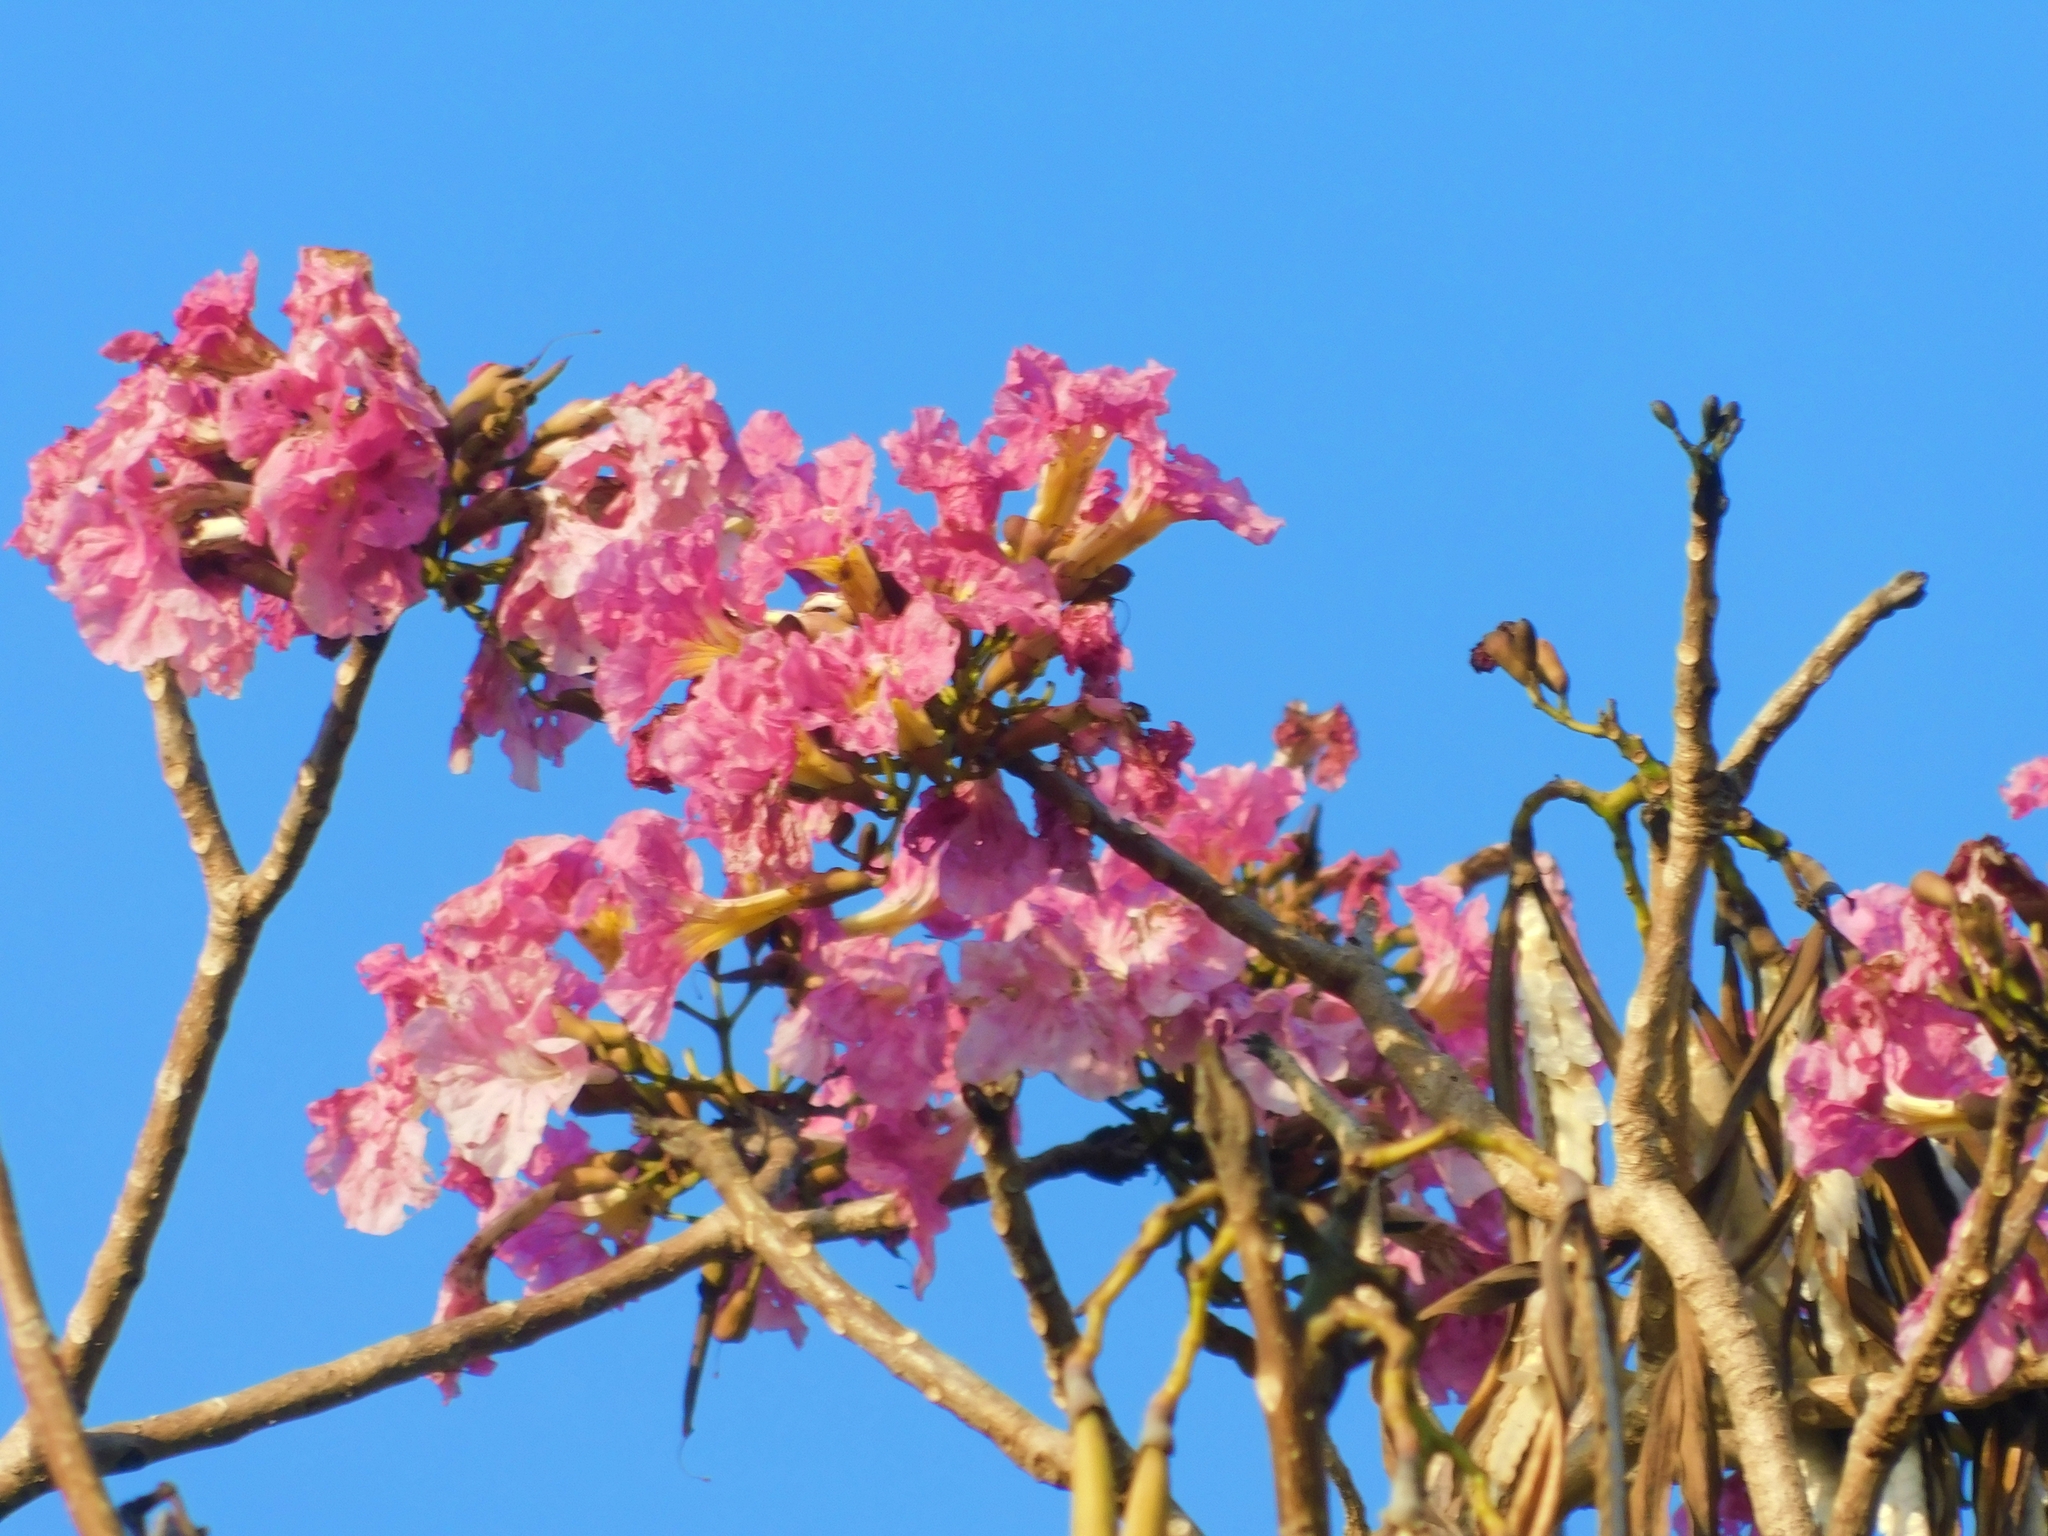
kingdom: Plantae
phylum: Tracheophyta
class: Magnoliopsida
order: Lamiales
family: Bignoniaceae
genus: Tabebuia
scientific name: Tabebuia rosea
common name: Pink poui
